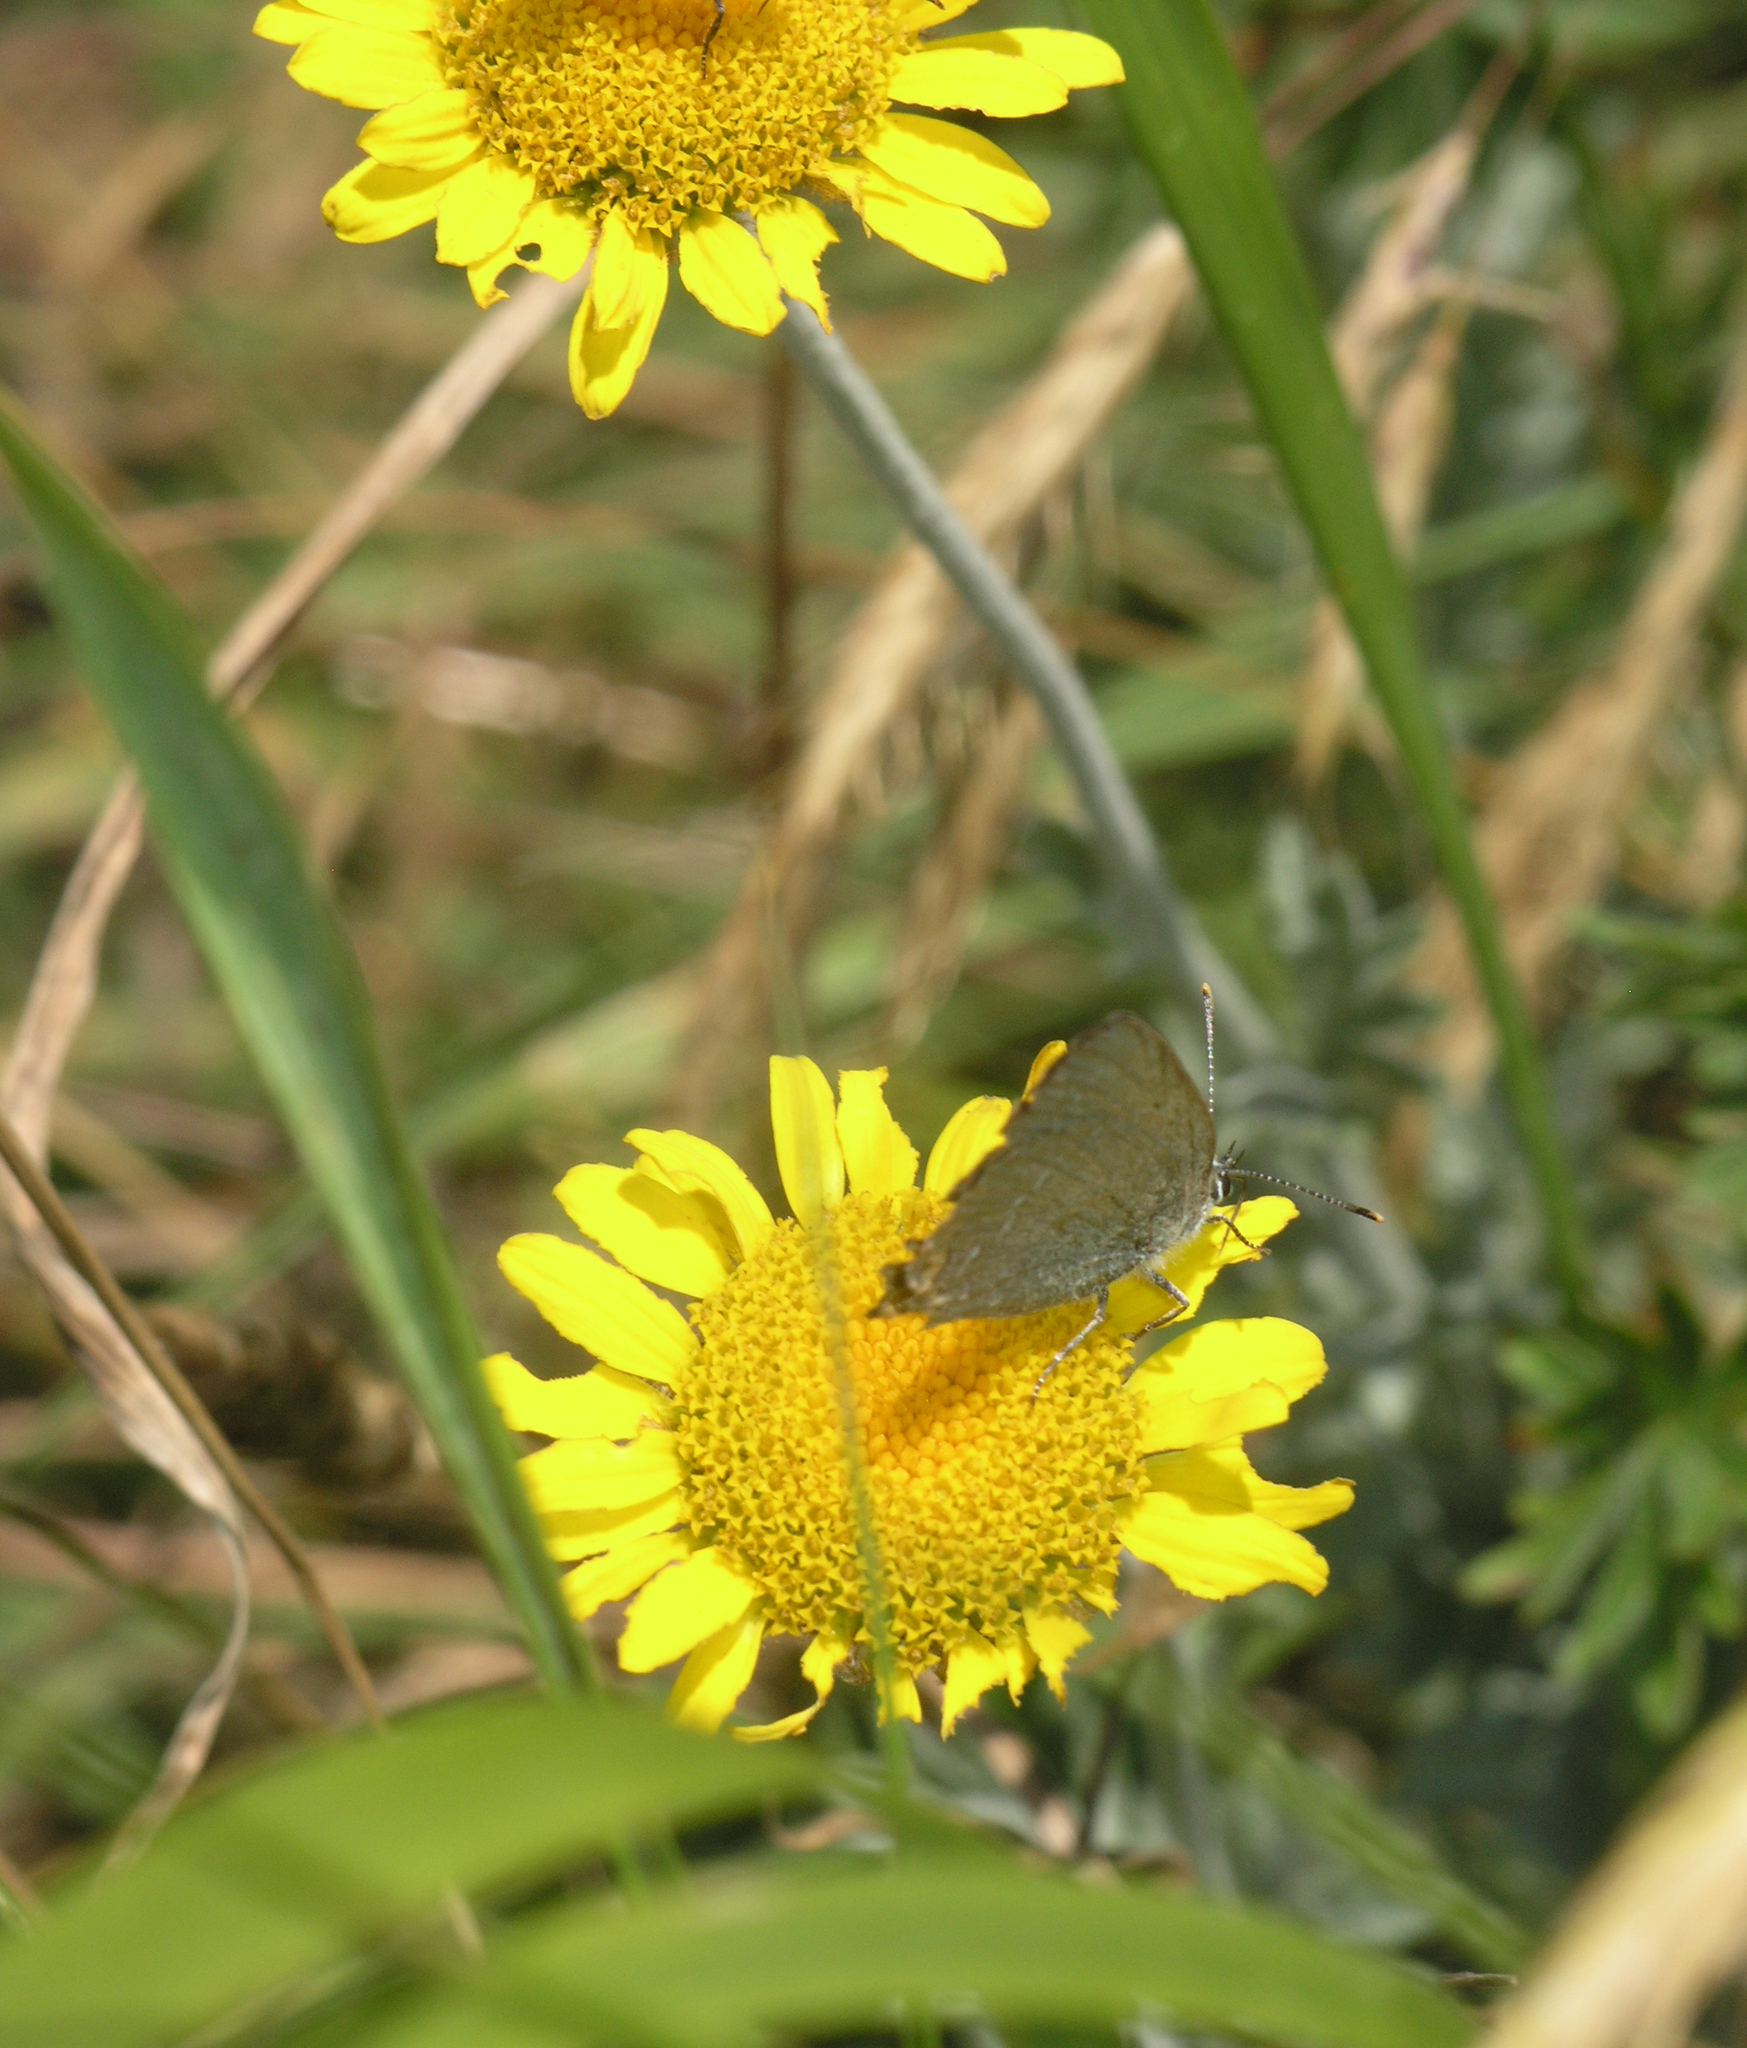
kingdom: Plantae
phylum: Tracheophyta
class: Magnoliopsida
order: Asterales
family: Asteraceae
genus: Cota
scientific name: Cota tinctoria
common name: Golden chamomile
